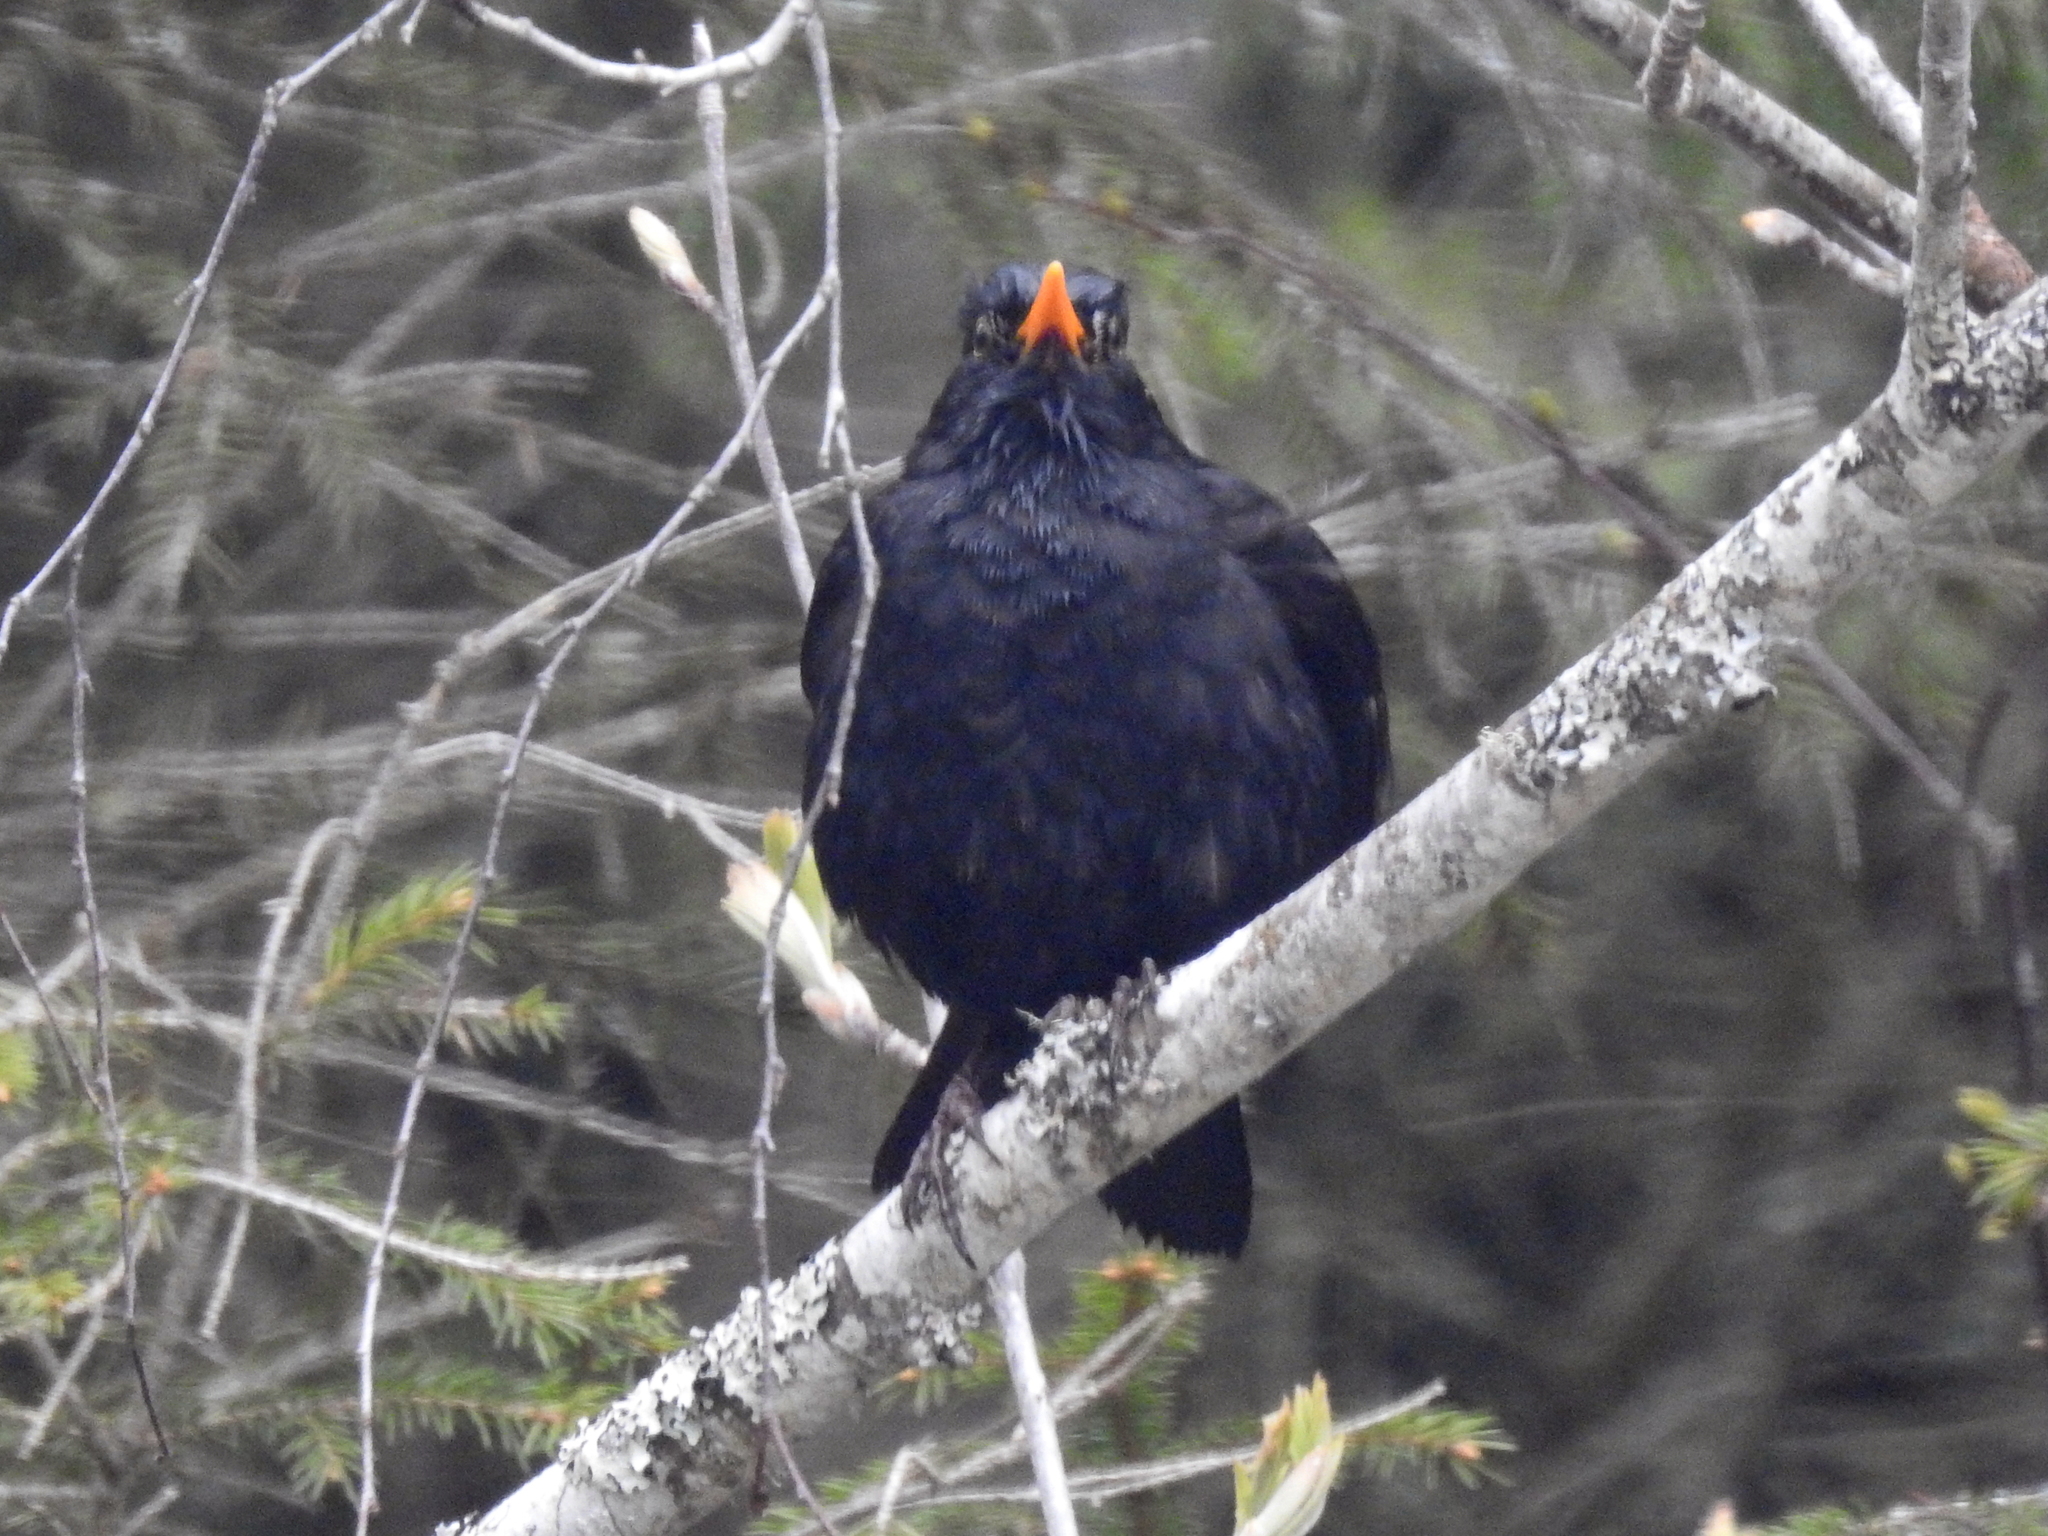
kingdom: Animalia
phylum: Chordata
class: Aves
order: Passeriformes
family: Turdidae
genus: Turdus
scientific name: Turdus merula
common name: Common blackbird
